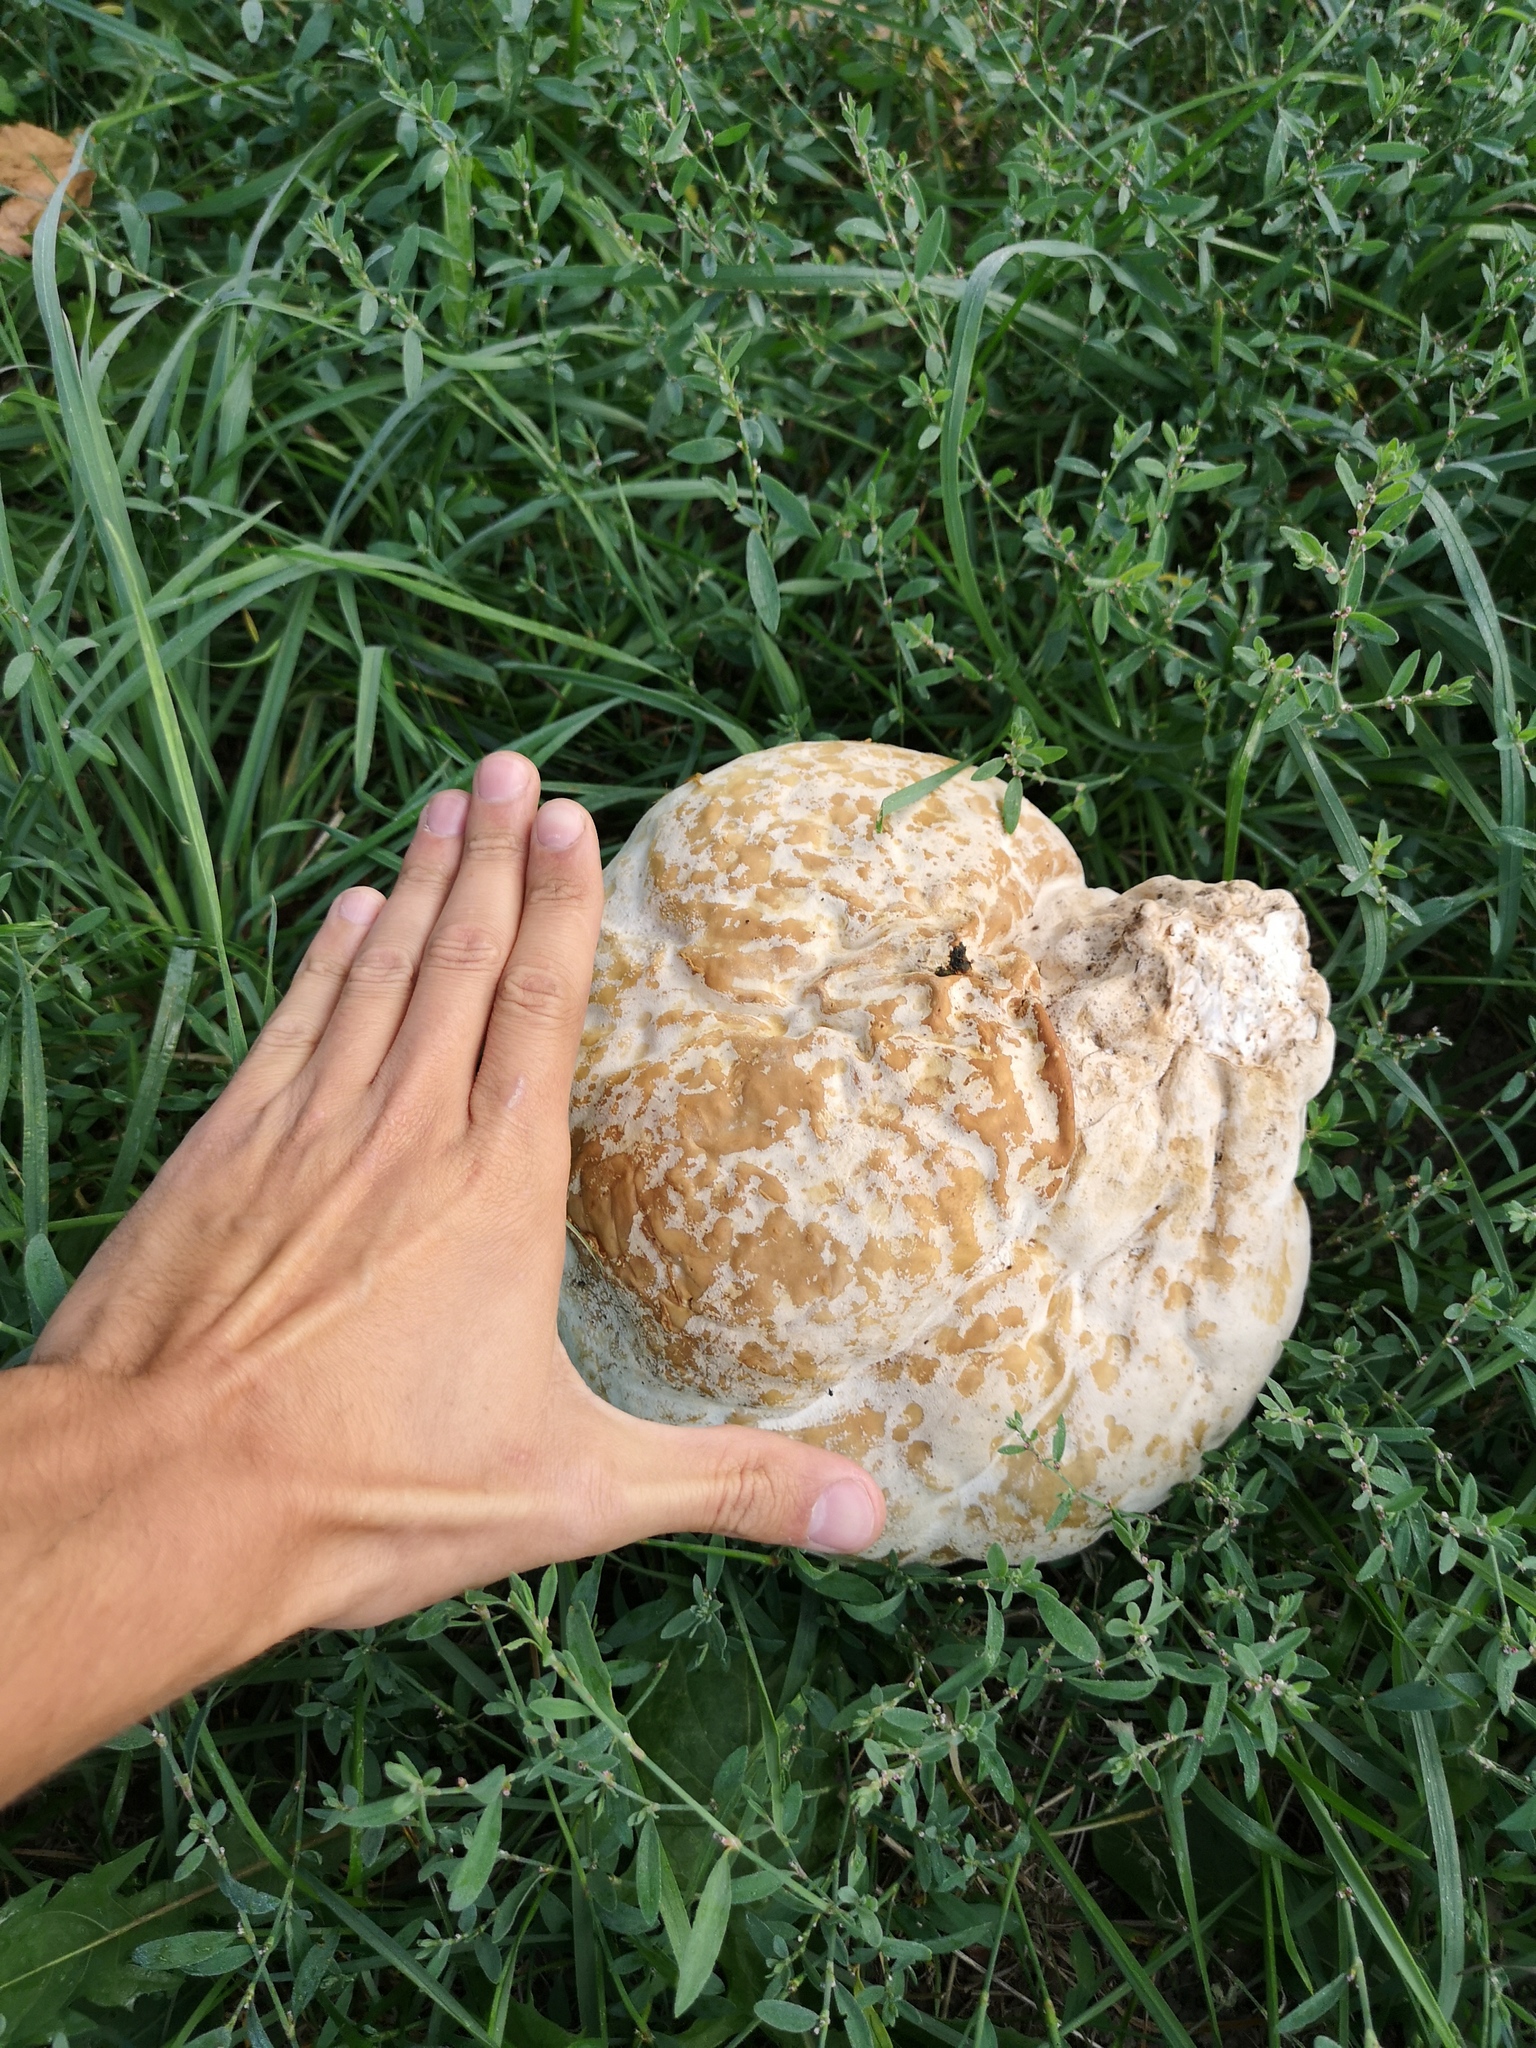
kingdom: Fungi
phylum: Basidiomycota
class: Agaricomycetes
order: Agaricales
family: Lycoperdaceae
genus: Calvatia
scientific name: Calvatia gigantea
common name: Giant puffball
